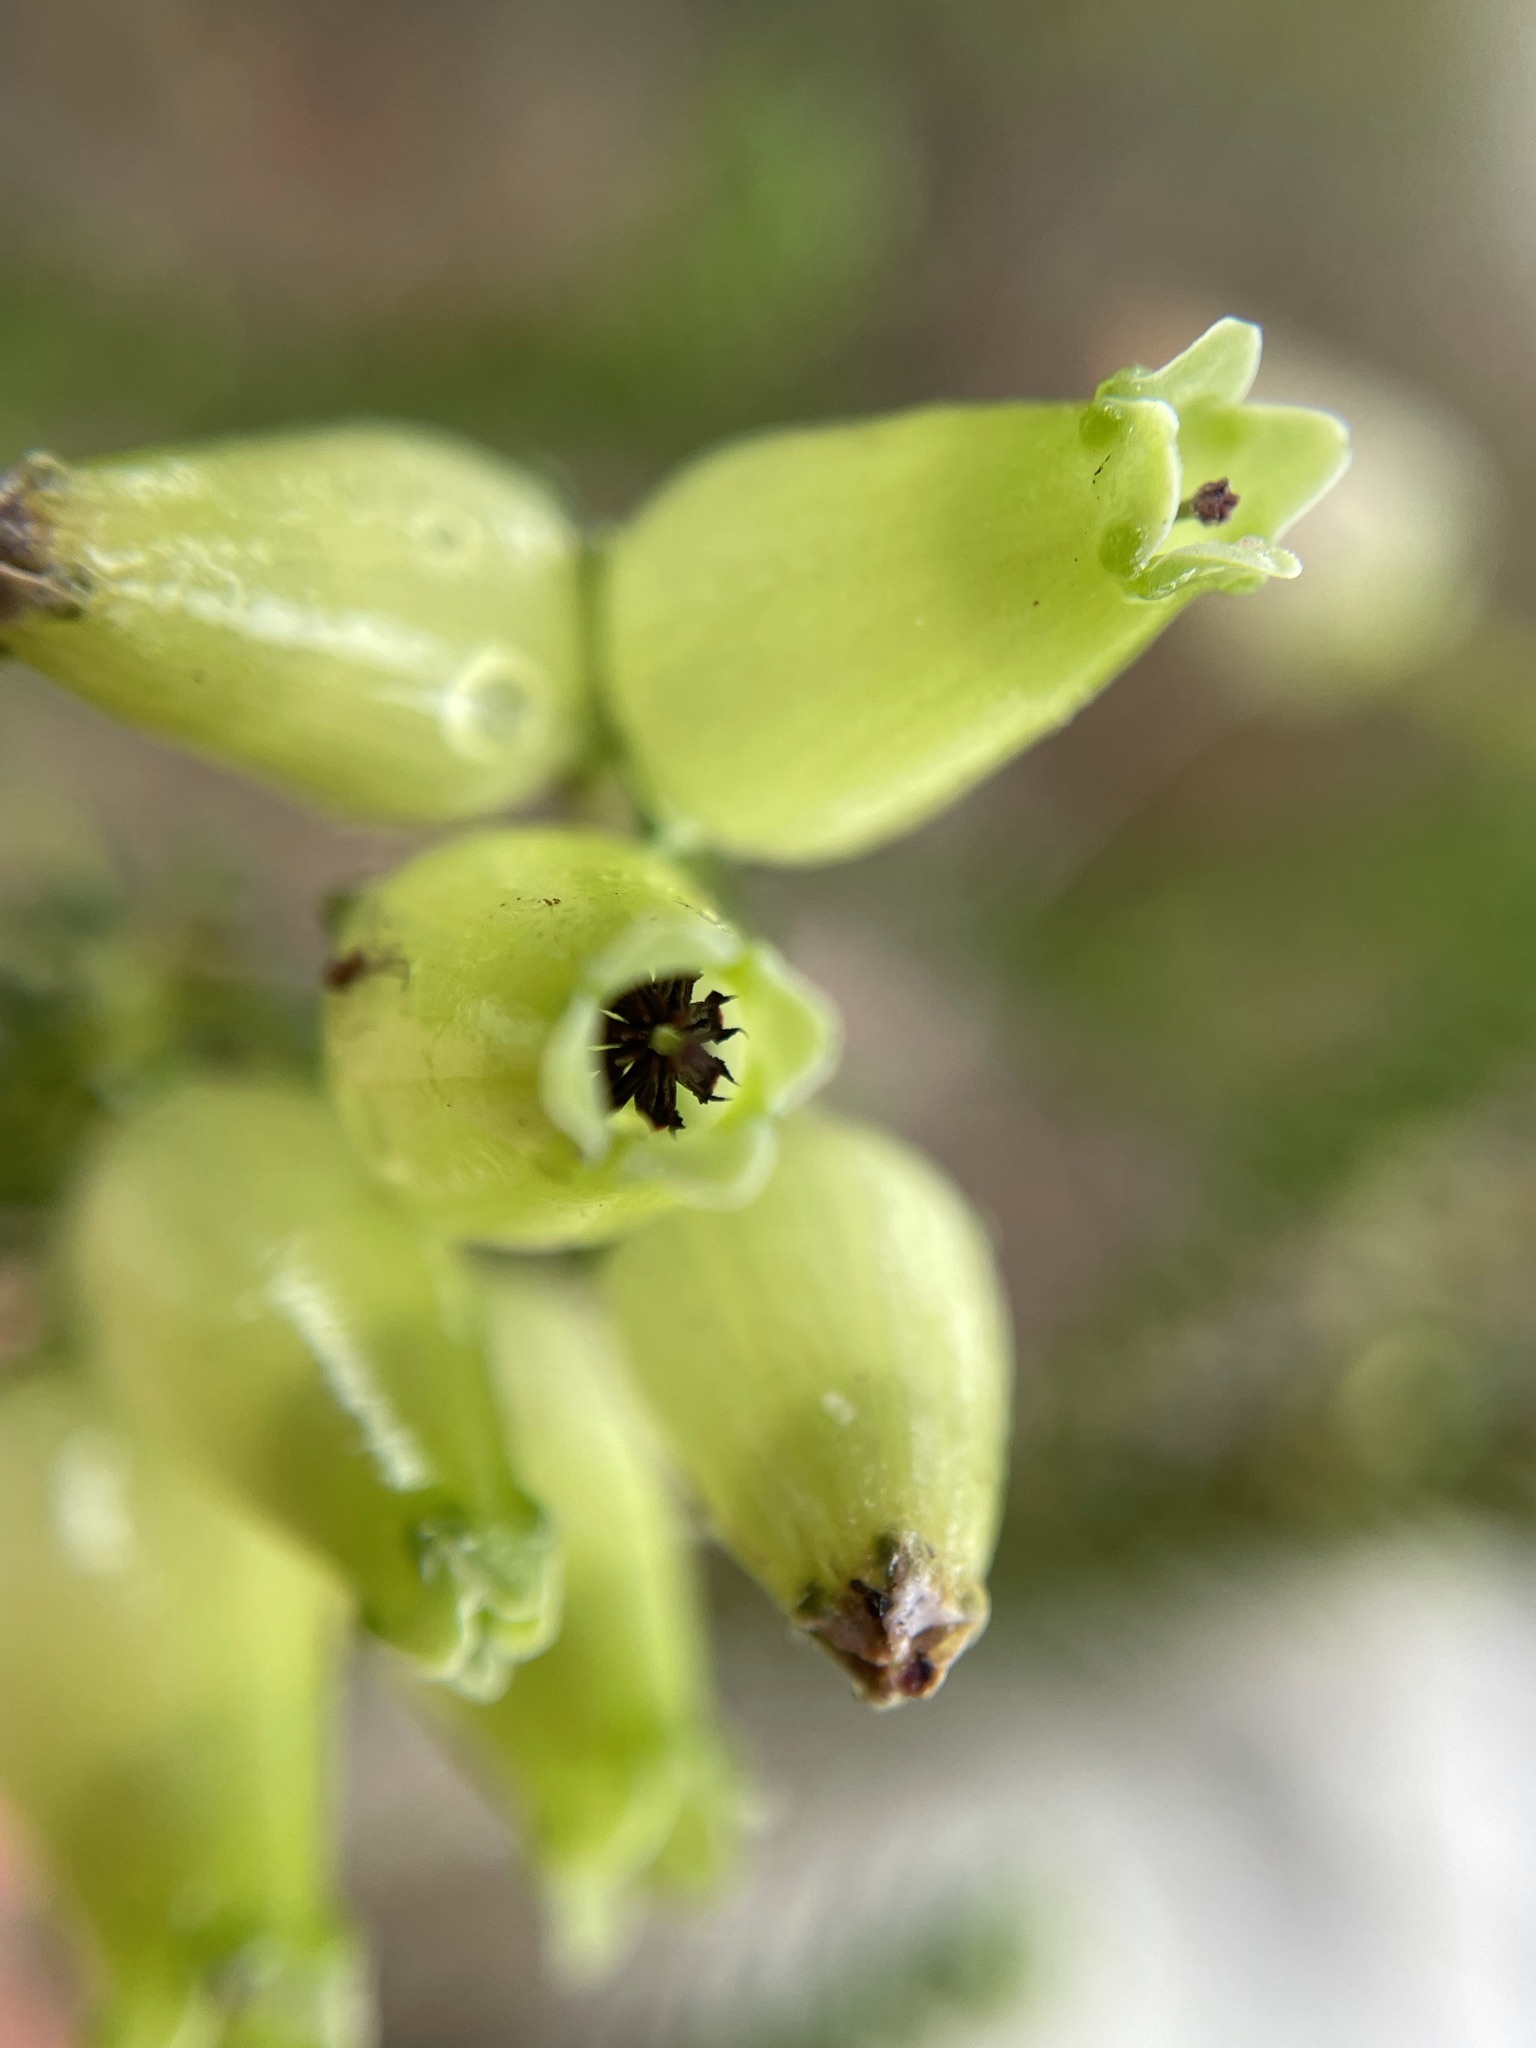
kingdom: Plantae
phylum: Tracheophyta
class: Magnoliopsida
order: Ericales
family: Ericaceae
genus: Erica
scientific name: Erica urna-viridis
